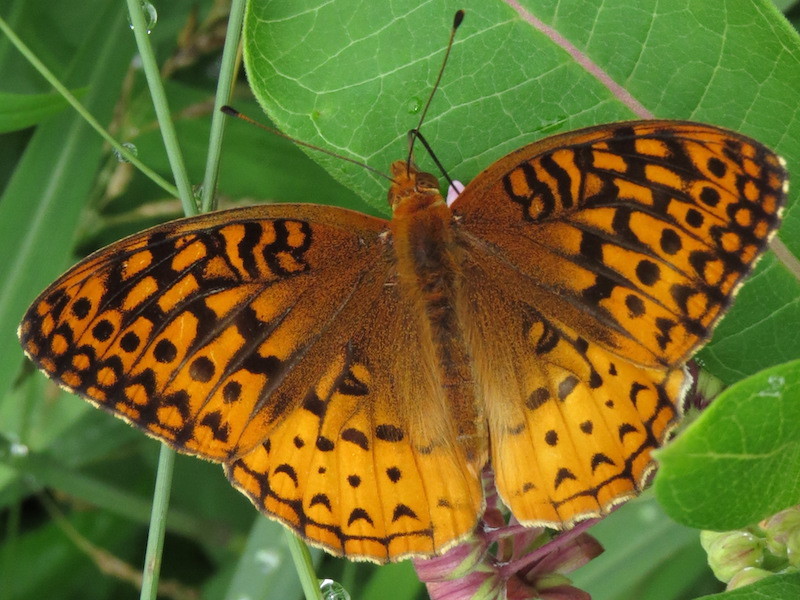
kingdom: Animalia
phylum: Arthropoda
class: Insecta
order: Lepidoptera
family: Nymphalidae
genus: Speyeria
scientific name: Speyeria cybele
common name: Great spangled fritillary
